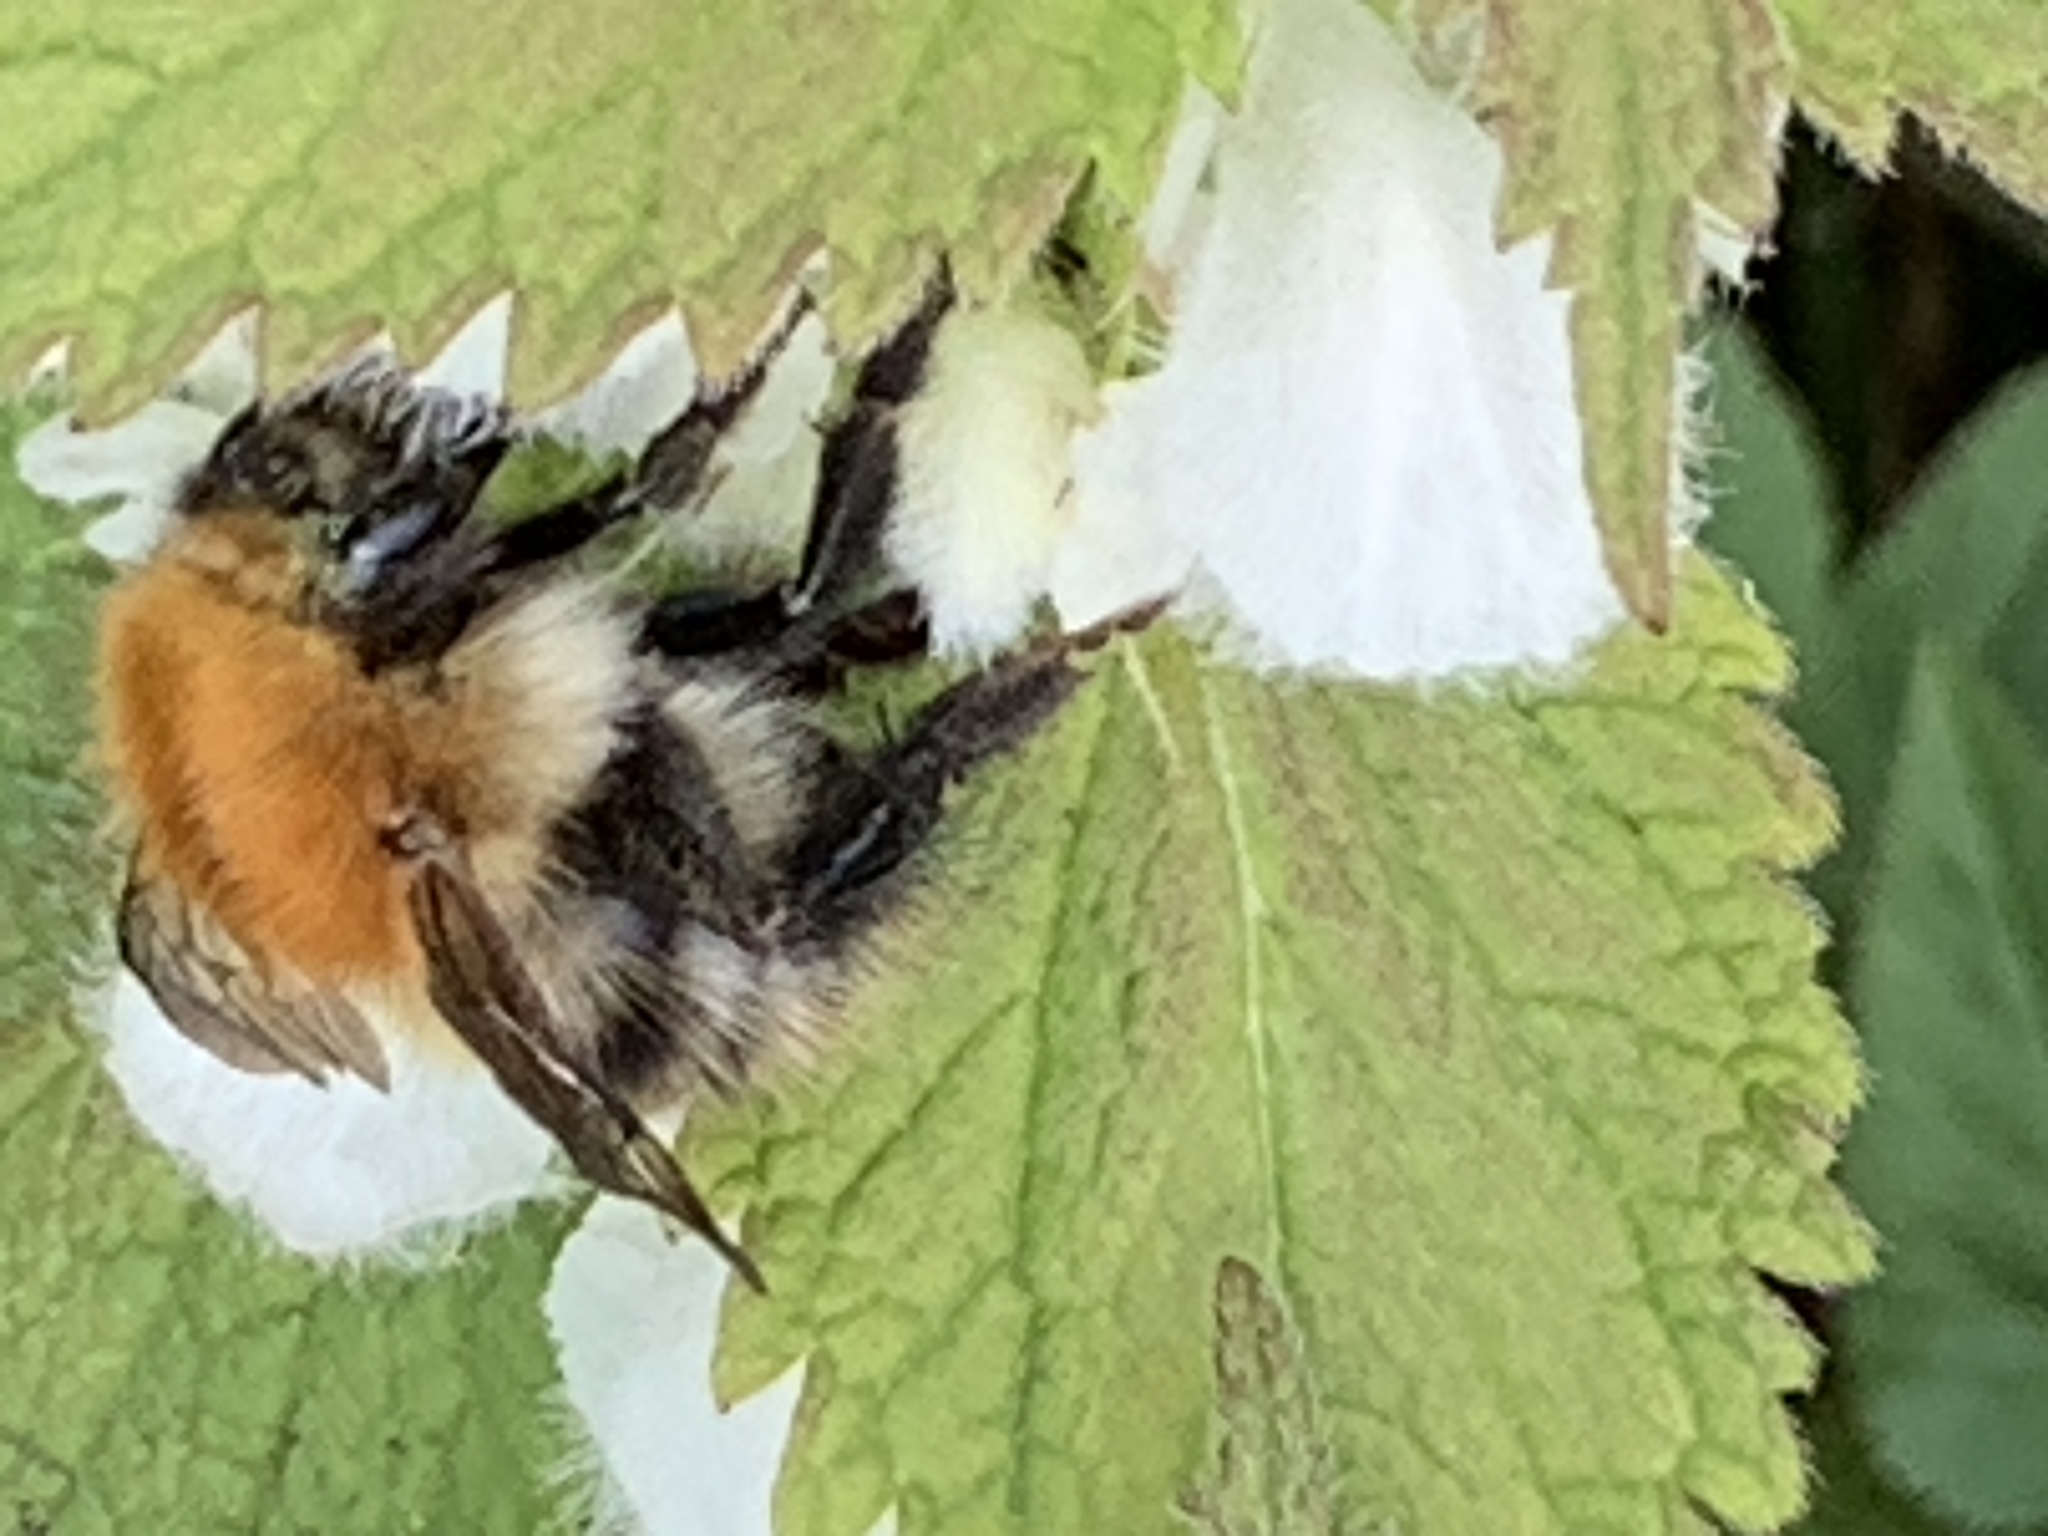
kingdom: Animalia
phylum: Arthropoda
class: Insecta
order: Hymenoptera
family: Apidae
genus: Bombus
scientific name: Bombus pascuorum
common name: Common carder bee
